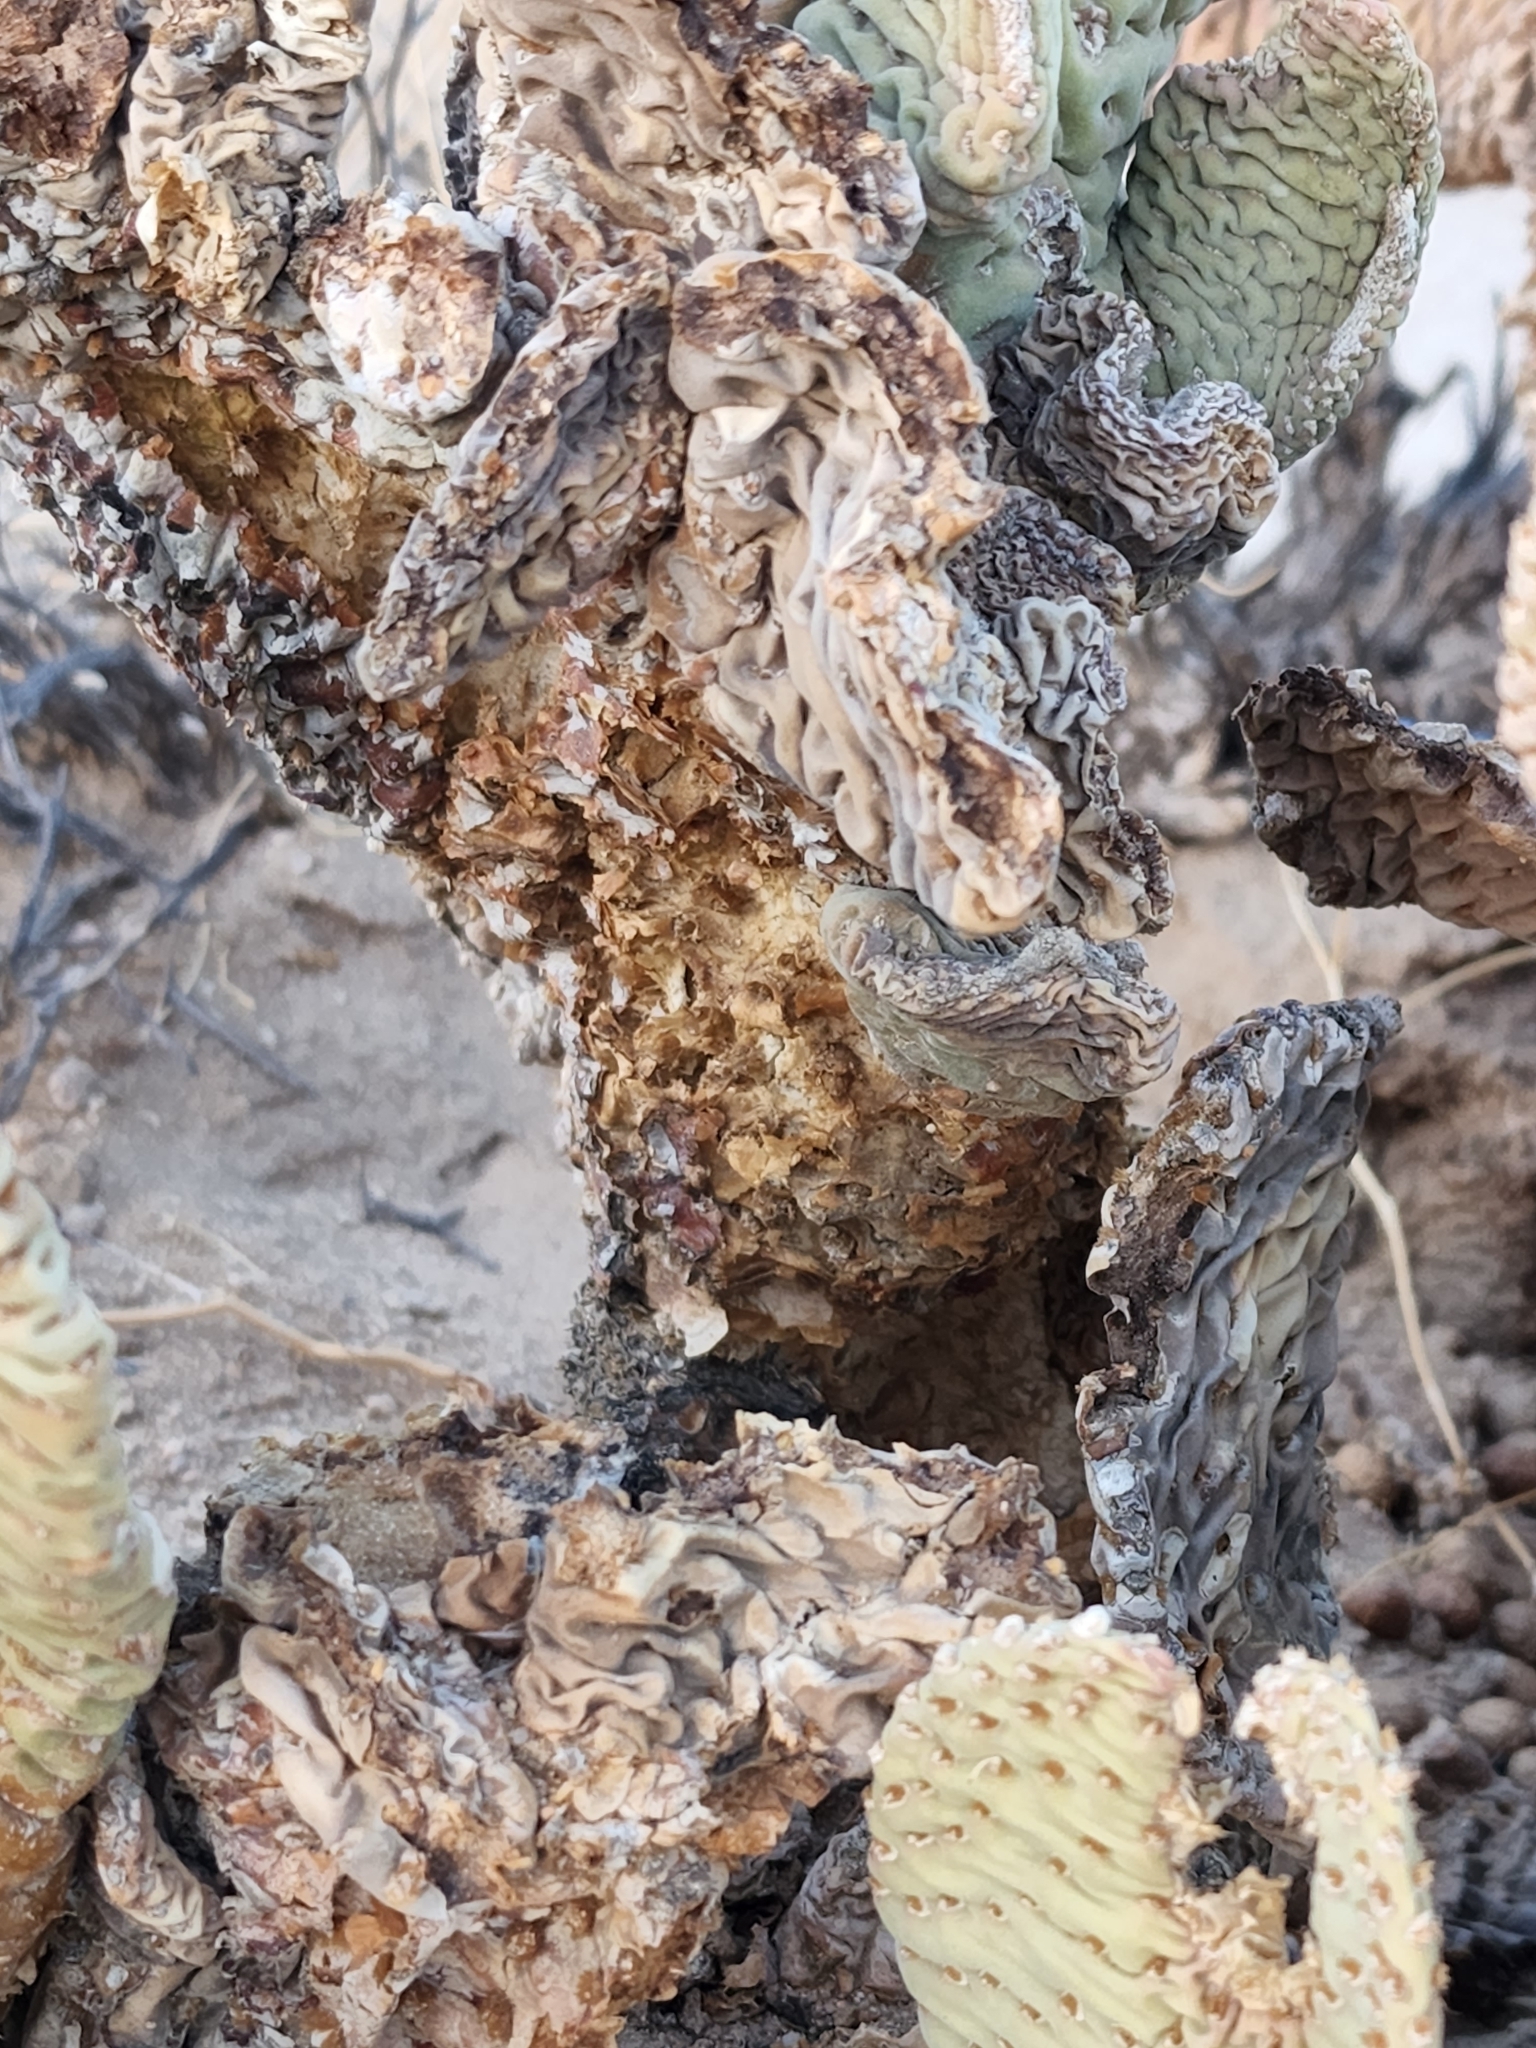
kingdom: Plantae
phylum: Tracheophyta
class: Magnoliopsida
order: Caryophyllales
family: Cactaceae
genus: Opuntia
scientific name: Opuntia basilaris
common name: Beavertail prickly-pear
